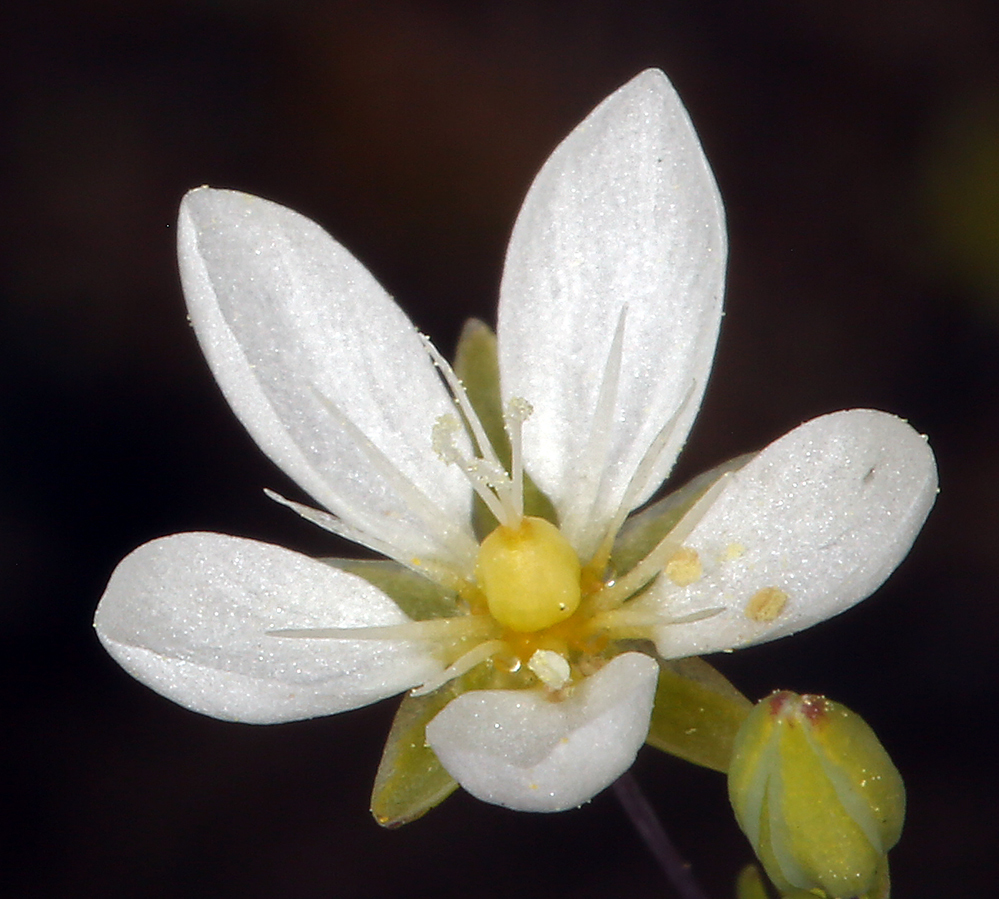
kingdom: Plantae
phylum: Tracheophyta
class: Magnoliopsida
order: Caryophyllales
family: Caryophyllaceae
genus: Sabulina
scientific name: Sabulina californica
